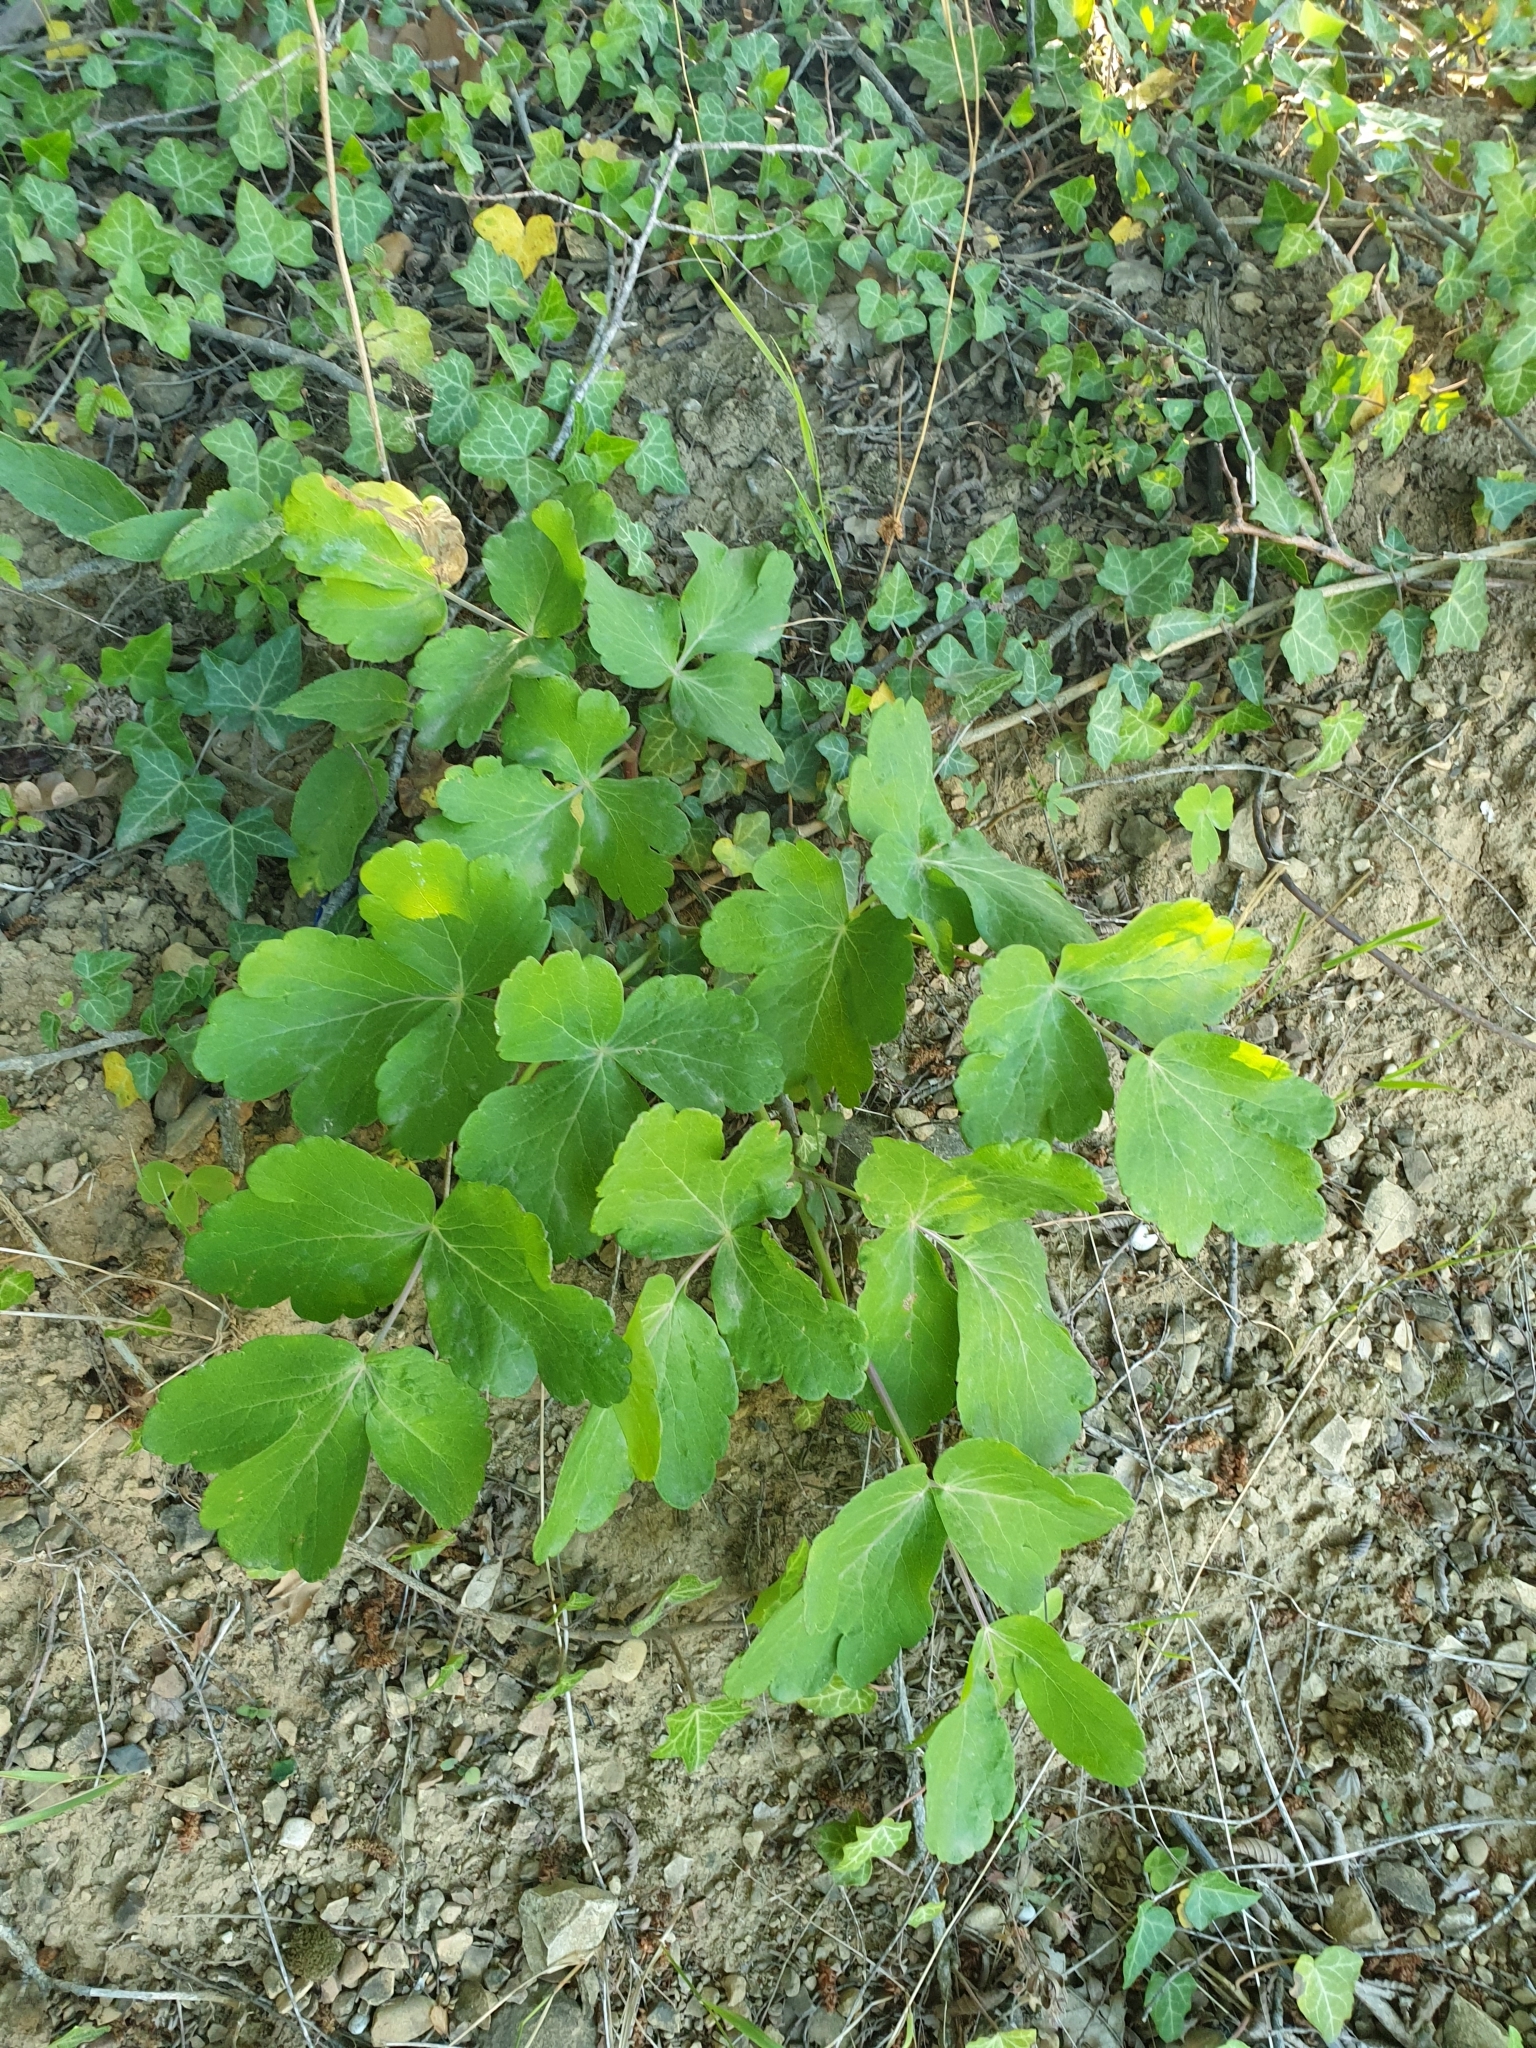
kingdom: Plantae
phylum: Tracheophyta
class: Magnoliopsida
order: Ranunculales
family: Papaveraceae
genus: Chelidonium
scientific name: Chelidonium majus
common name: Greater celandine
